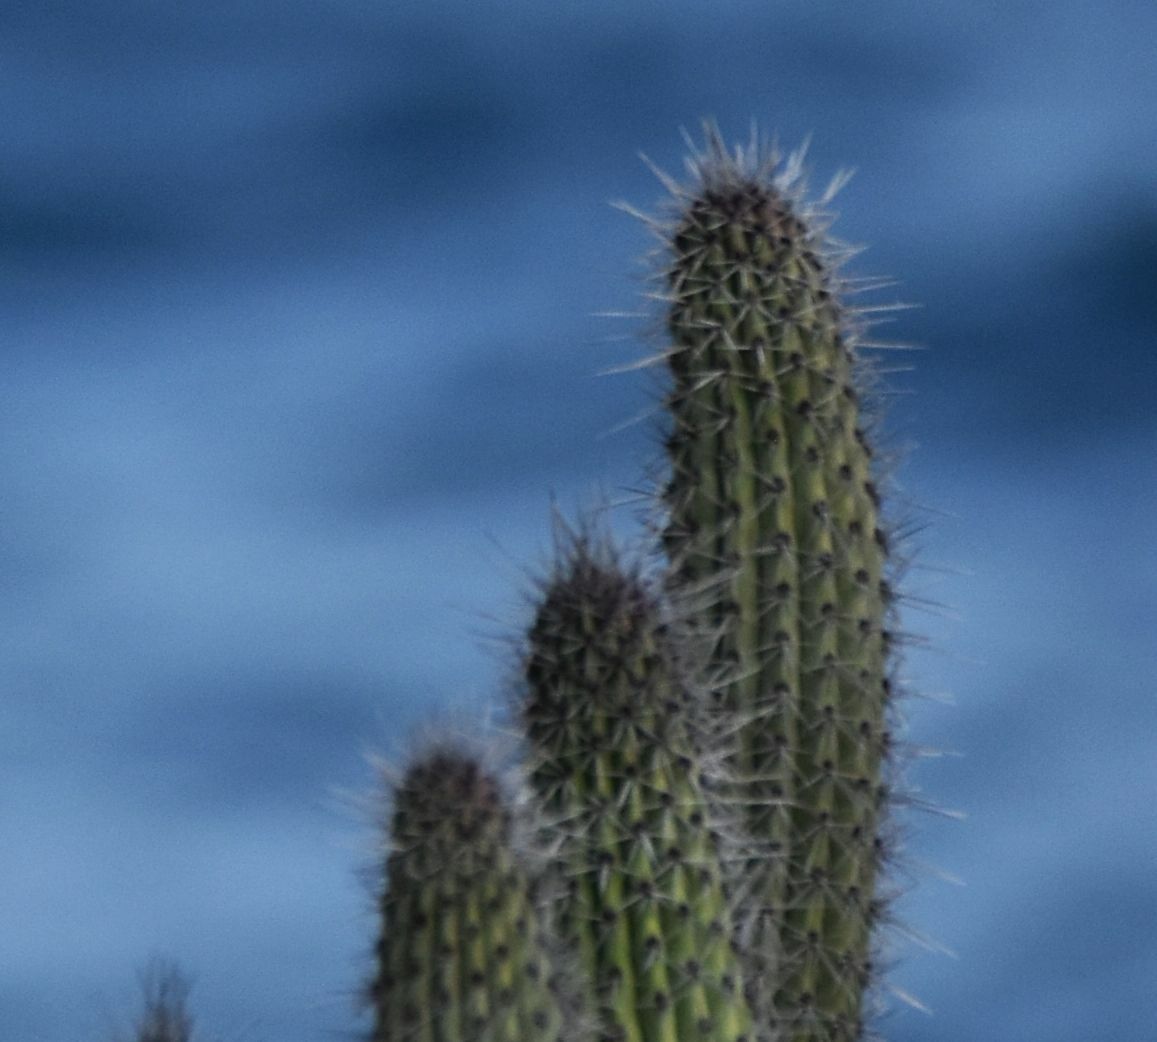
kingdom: Plantae
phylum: Tracheophyta
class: Magnoliopsida
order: Caryophyllales
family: Cactaceae
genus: Stenocereus
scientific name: Stenocereus thurberi
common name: Organ pipe cactus
